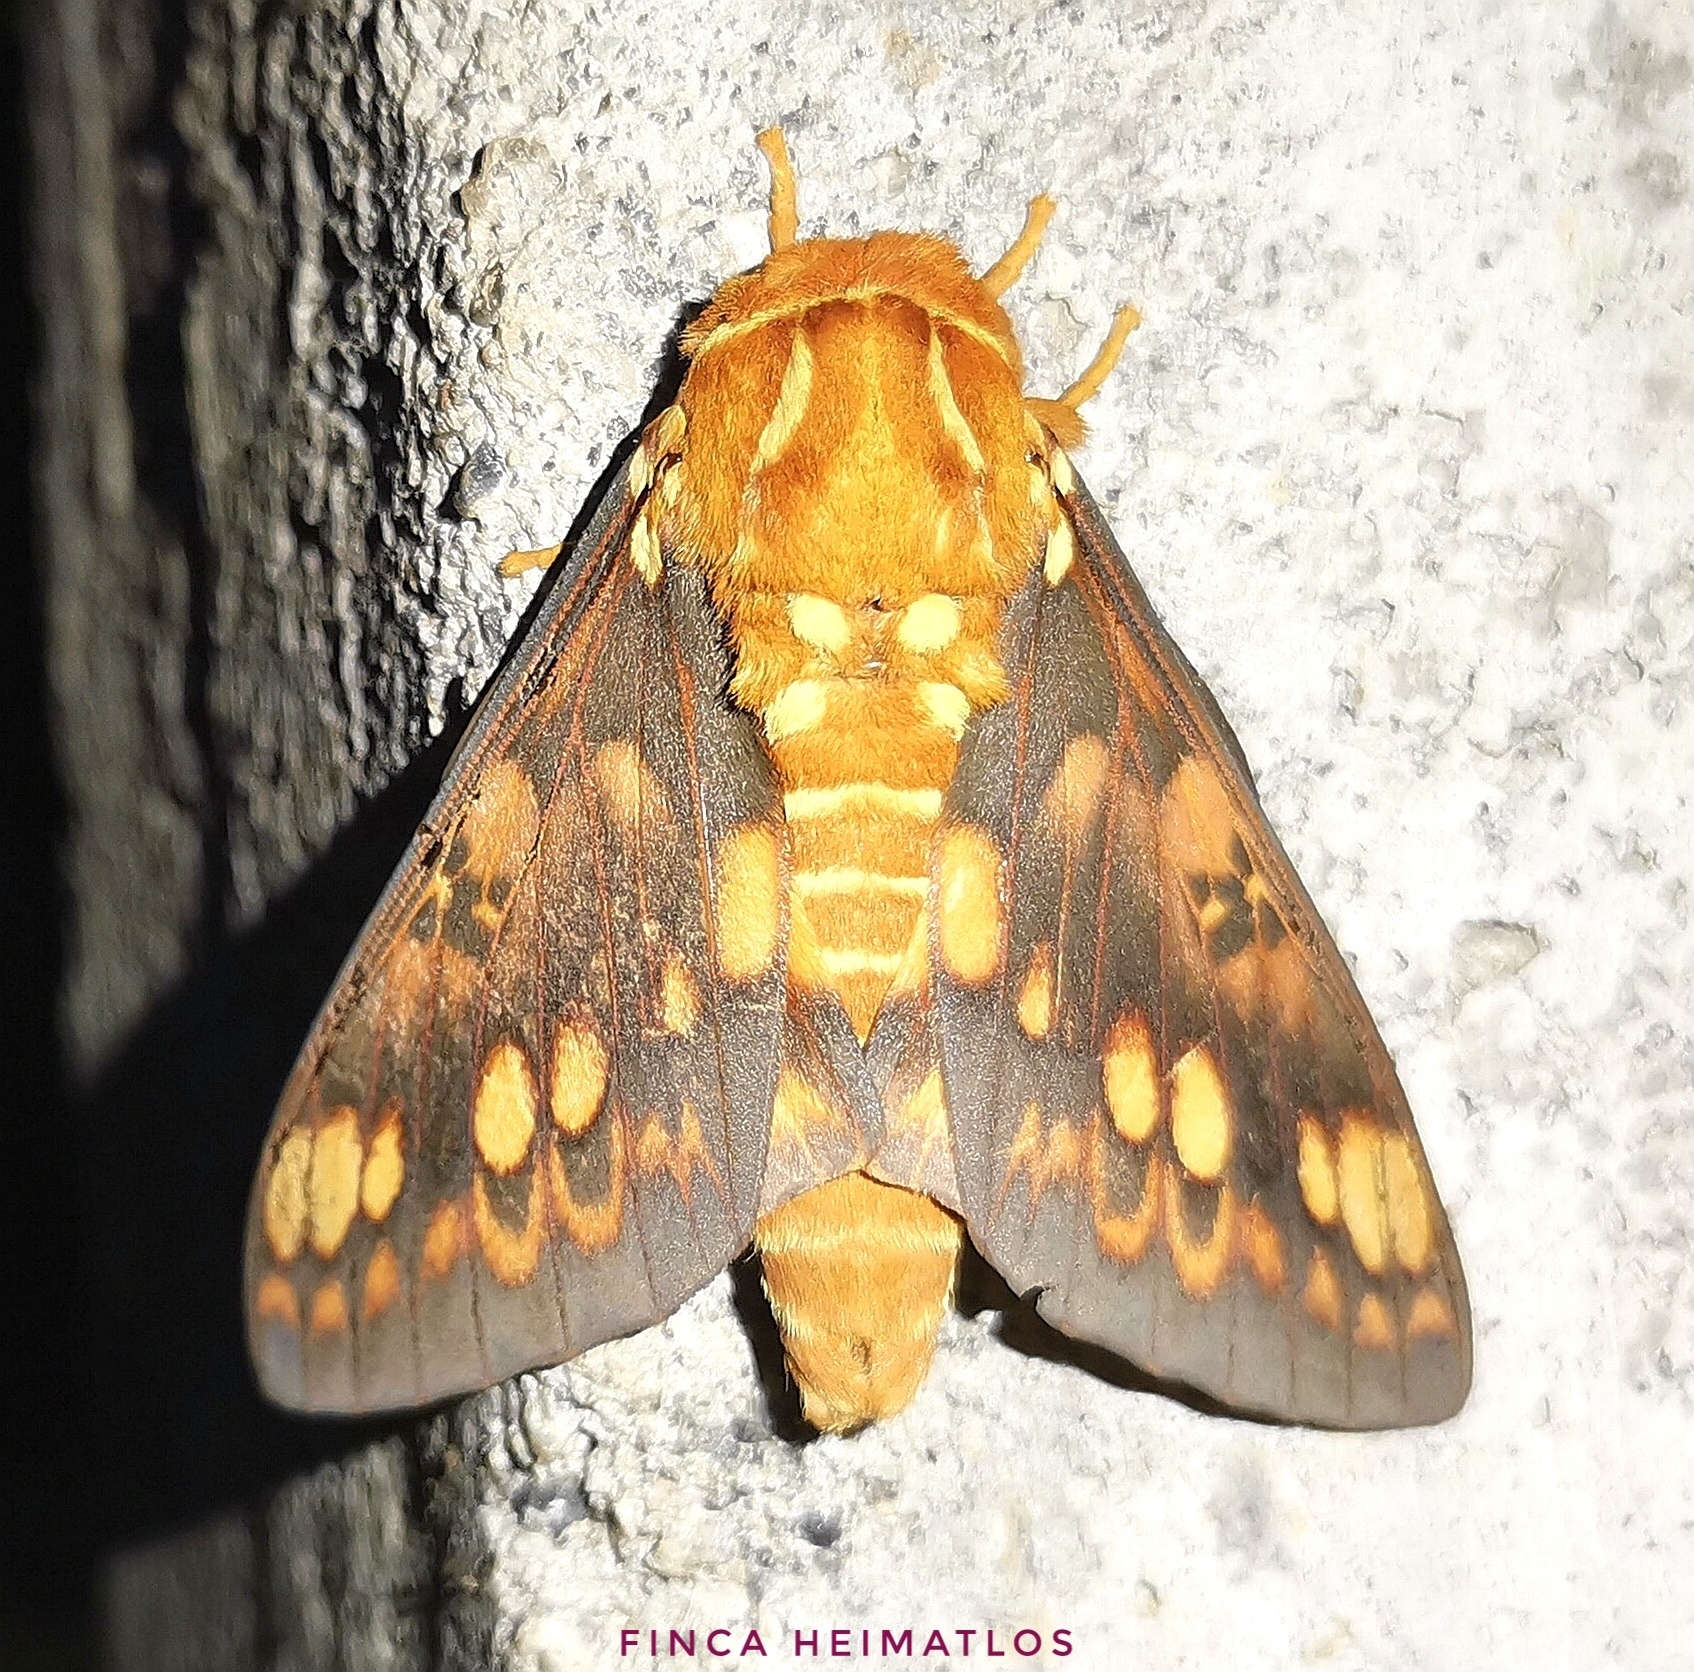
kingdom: Animalia
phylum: Arthropoda
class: Insecta
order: Lepidoptera
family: Saturniidae
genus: Citheronia
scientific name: Citheronia aroa
